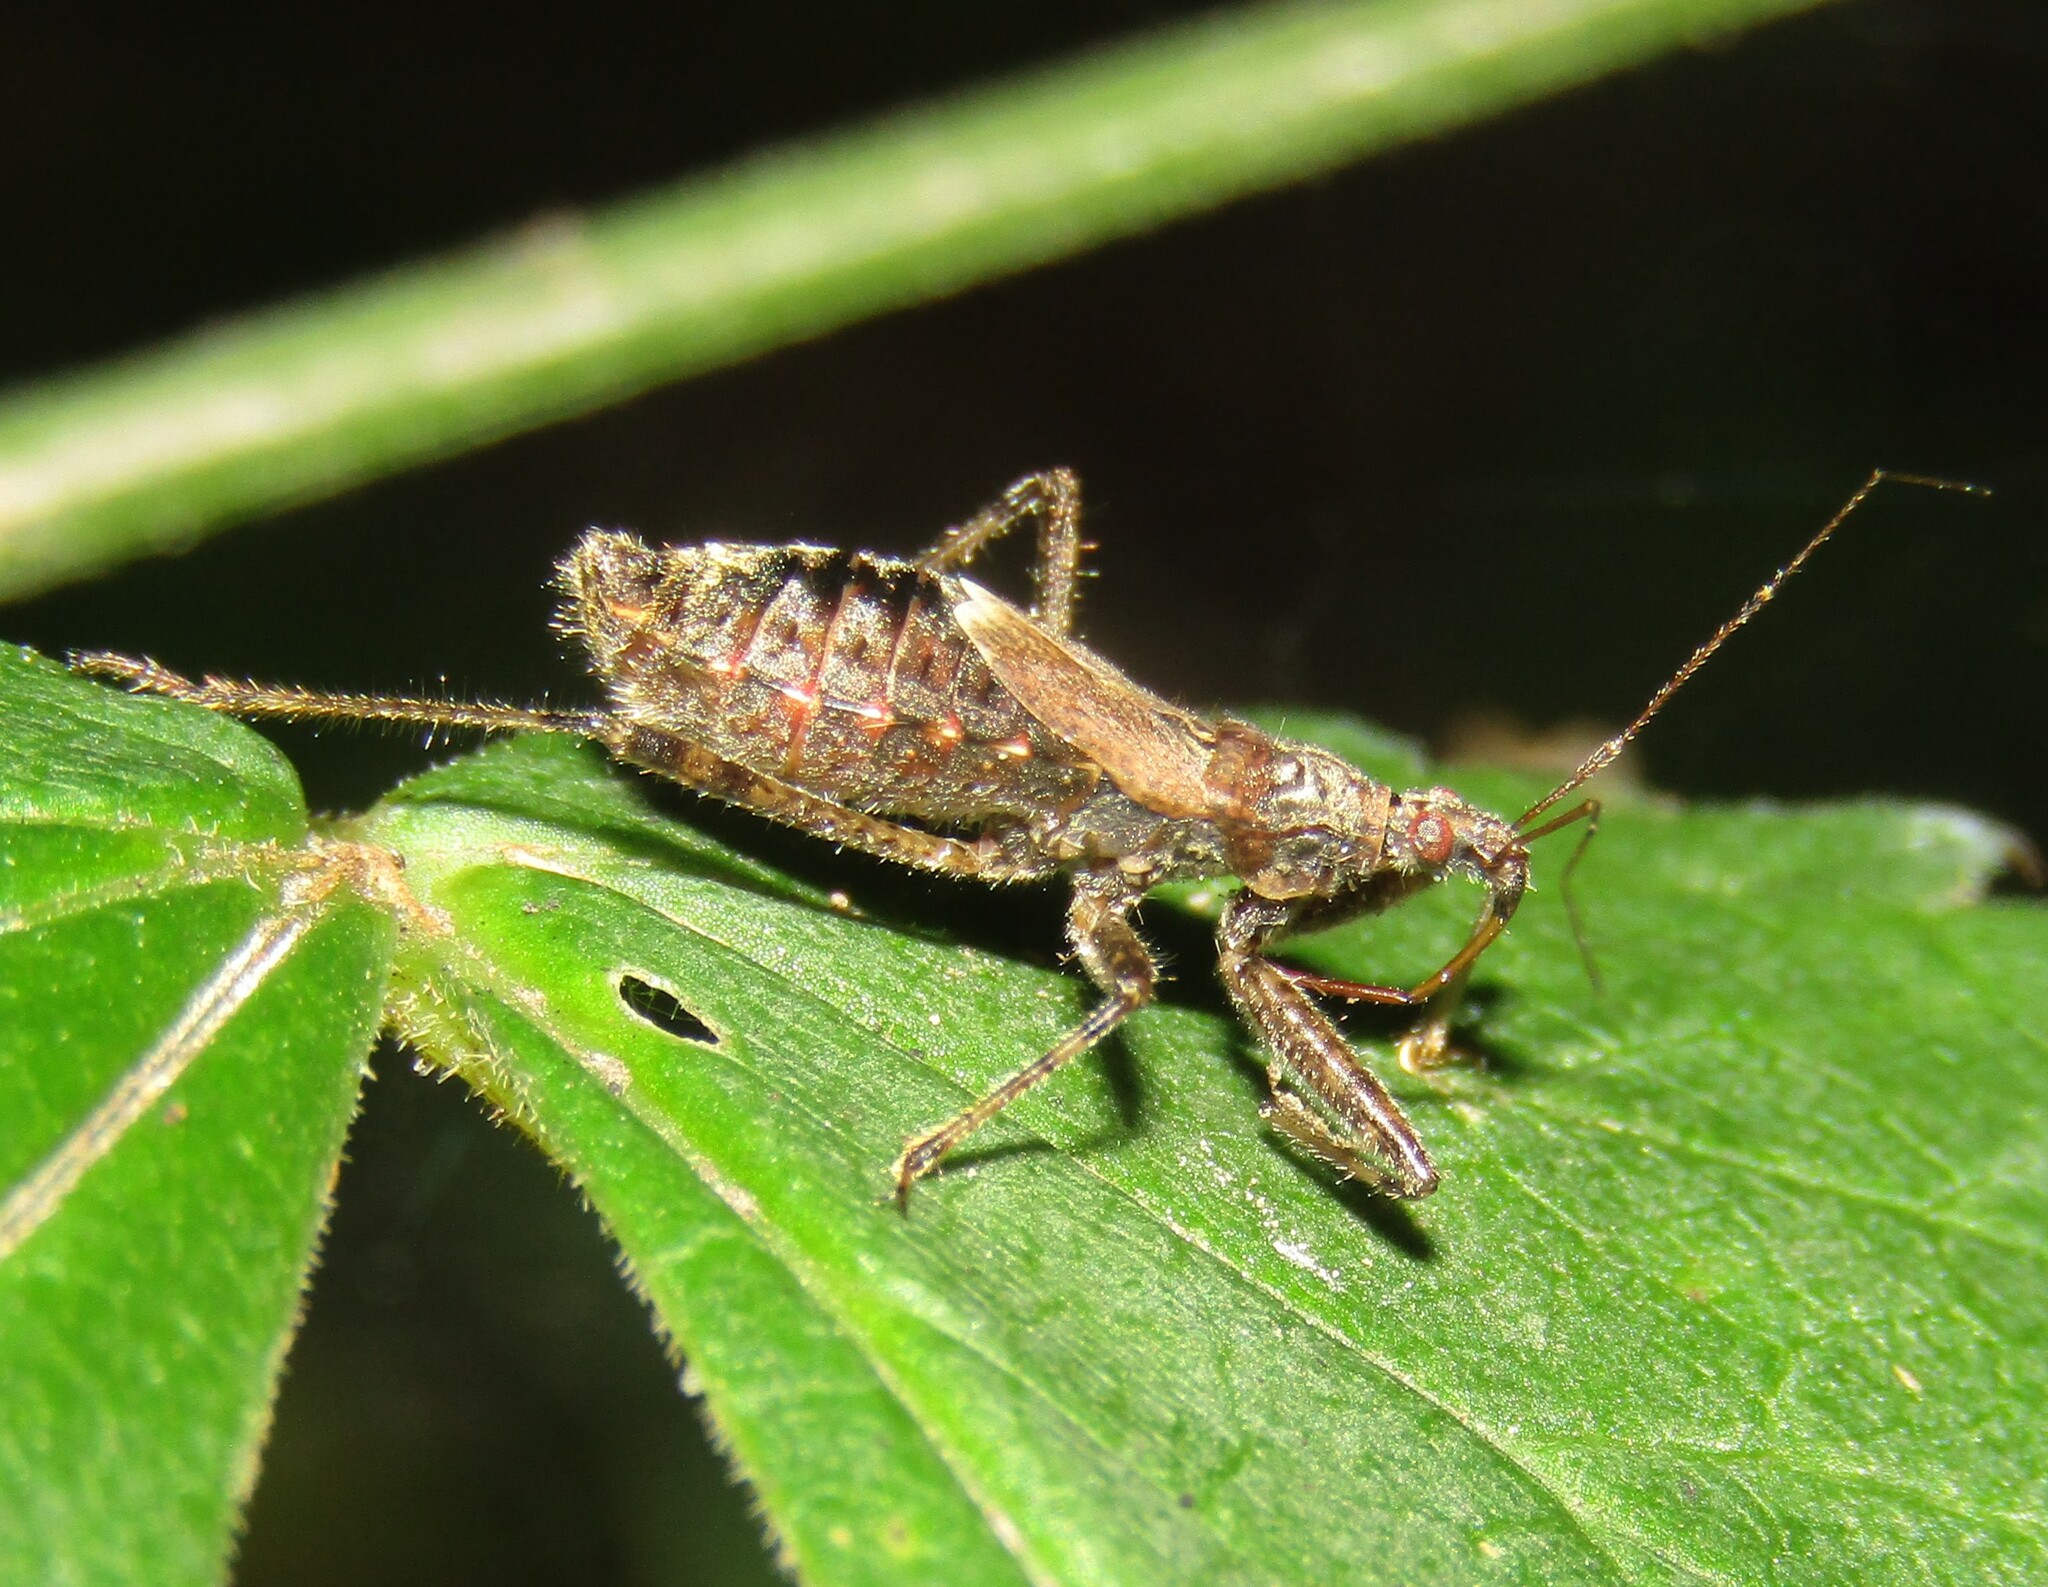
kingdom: Animalia
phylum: Arthropoda
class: Insecta
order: Hemiptera
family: Nabidae
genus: Himacerus
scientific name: Himacerus apterus
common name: Tree damsel bug
